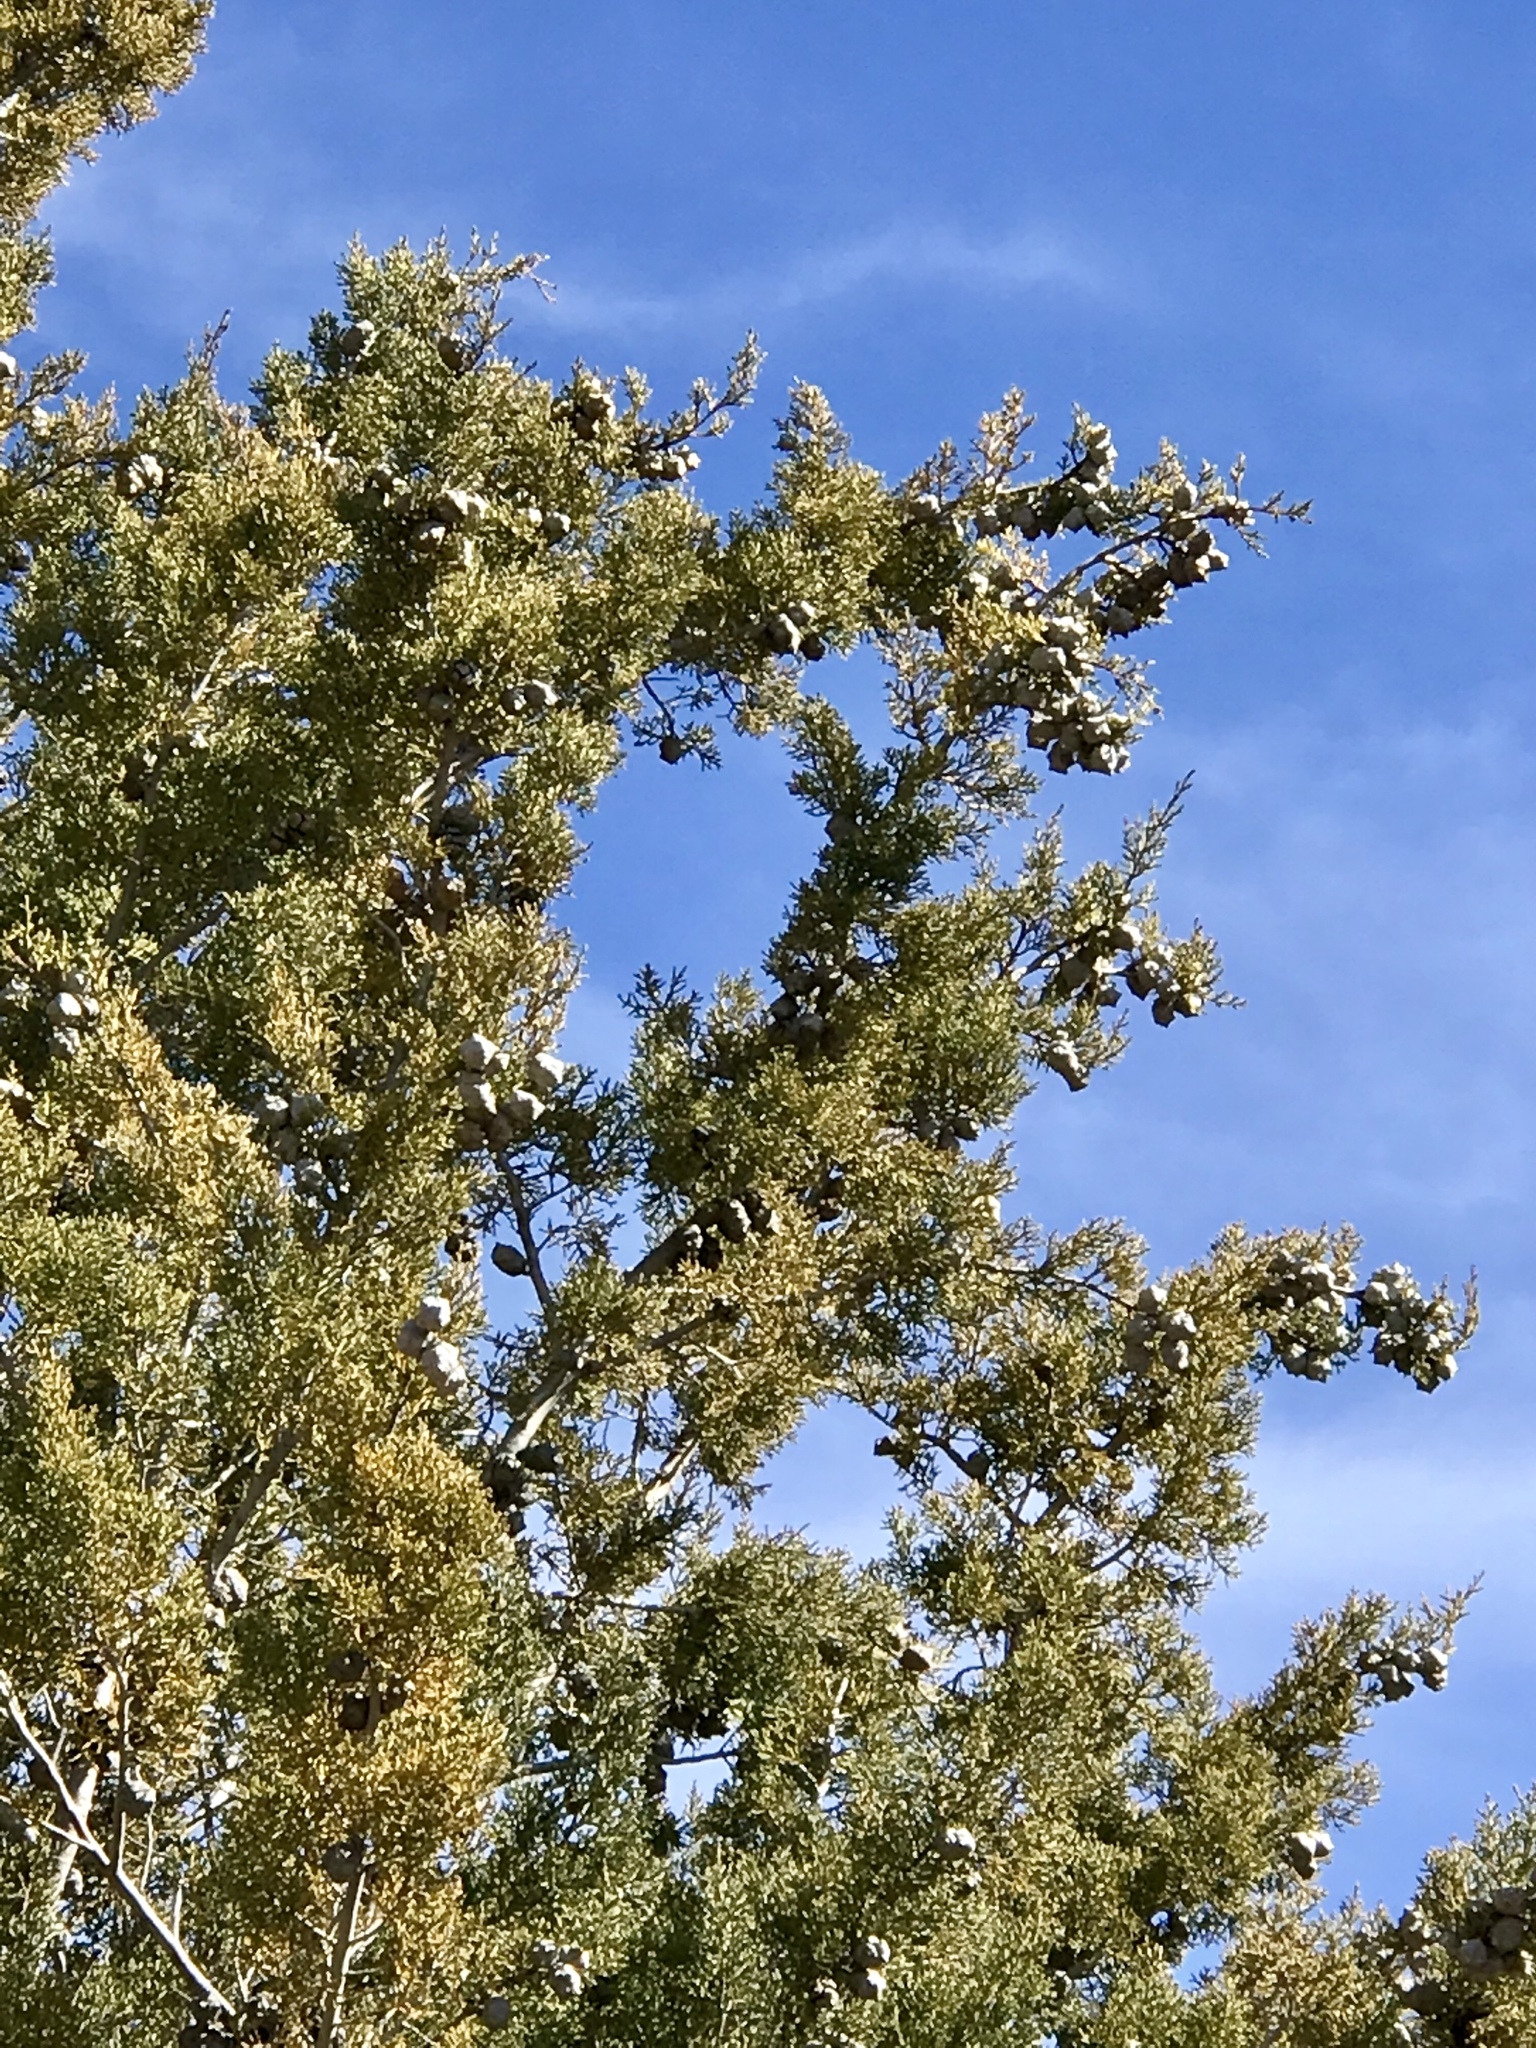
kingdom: Plantae
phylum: Tracheophyta
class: Pinopsida
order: Pinales
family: Cupressaceae
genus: Cupressus
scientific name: Cupressus arizonica
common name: Arizona cypress
